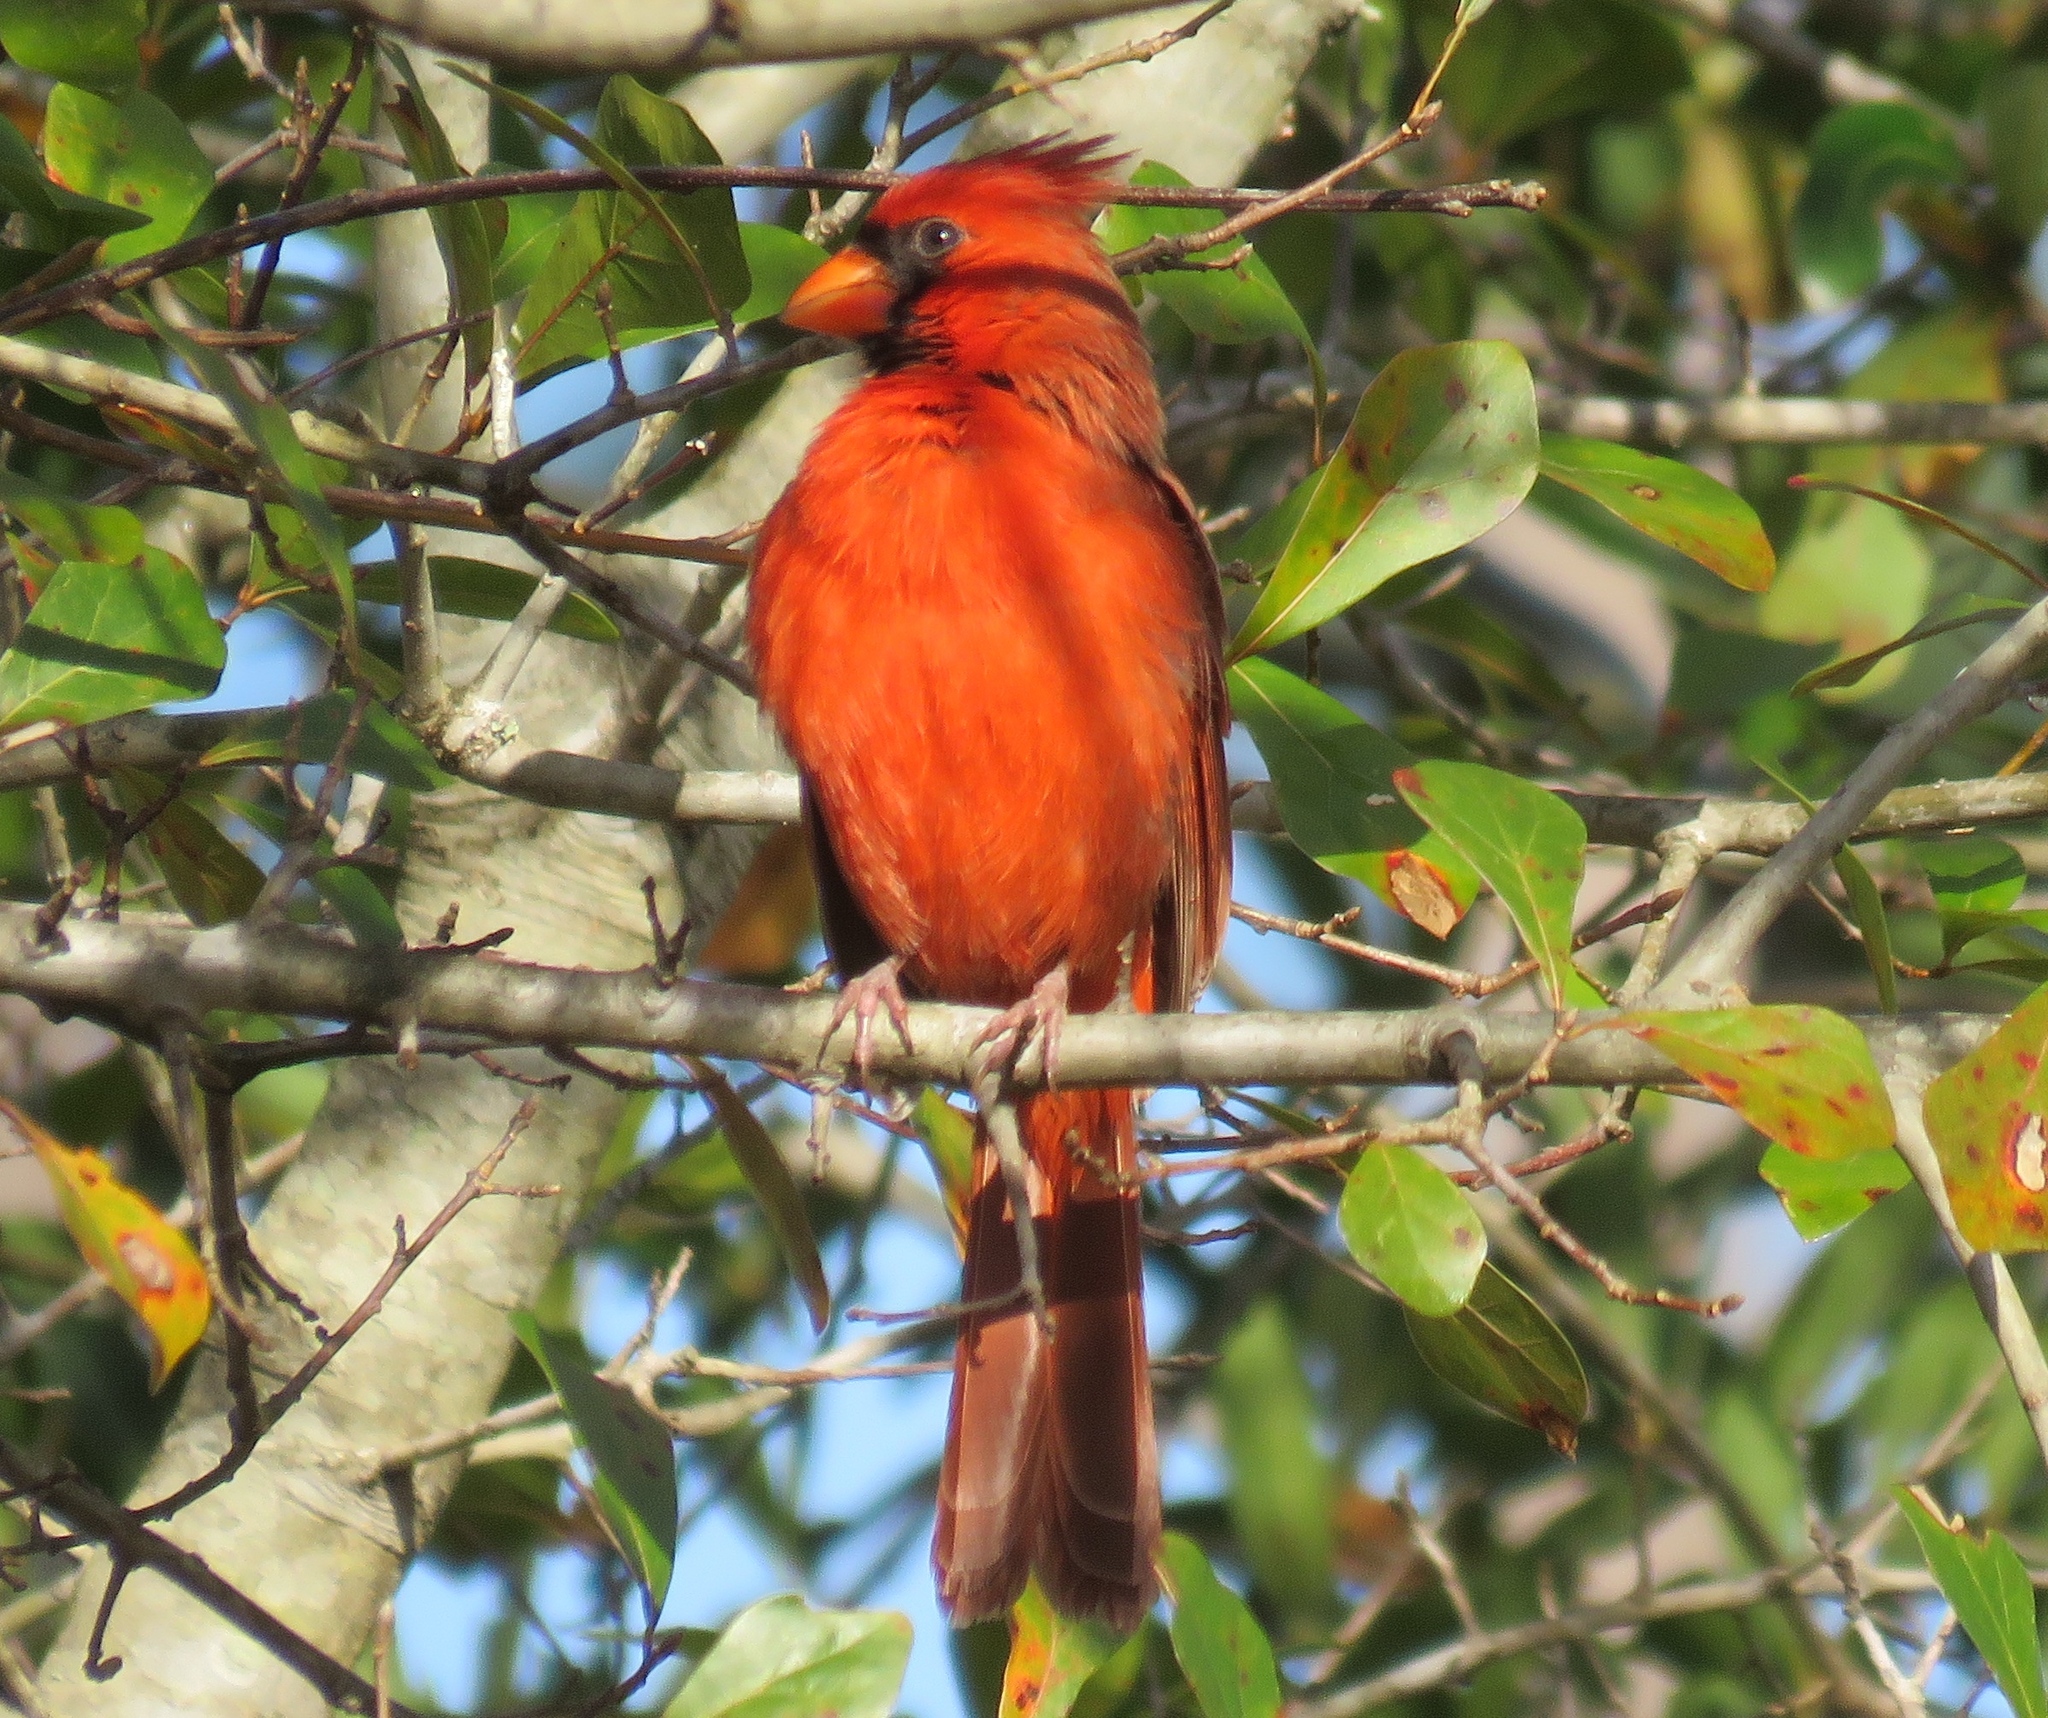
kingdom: Animalia
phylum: Chordata
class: Aves
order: Passeriformes
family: Cardinalidae
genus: Cardinalis
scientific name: Cardinalis cardinalis
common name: Northern cardinal
